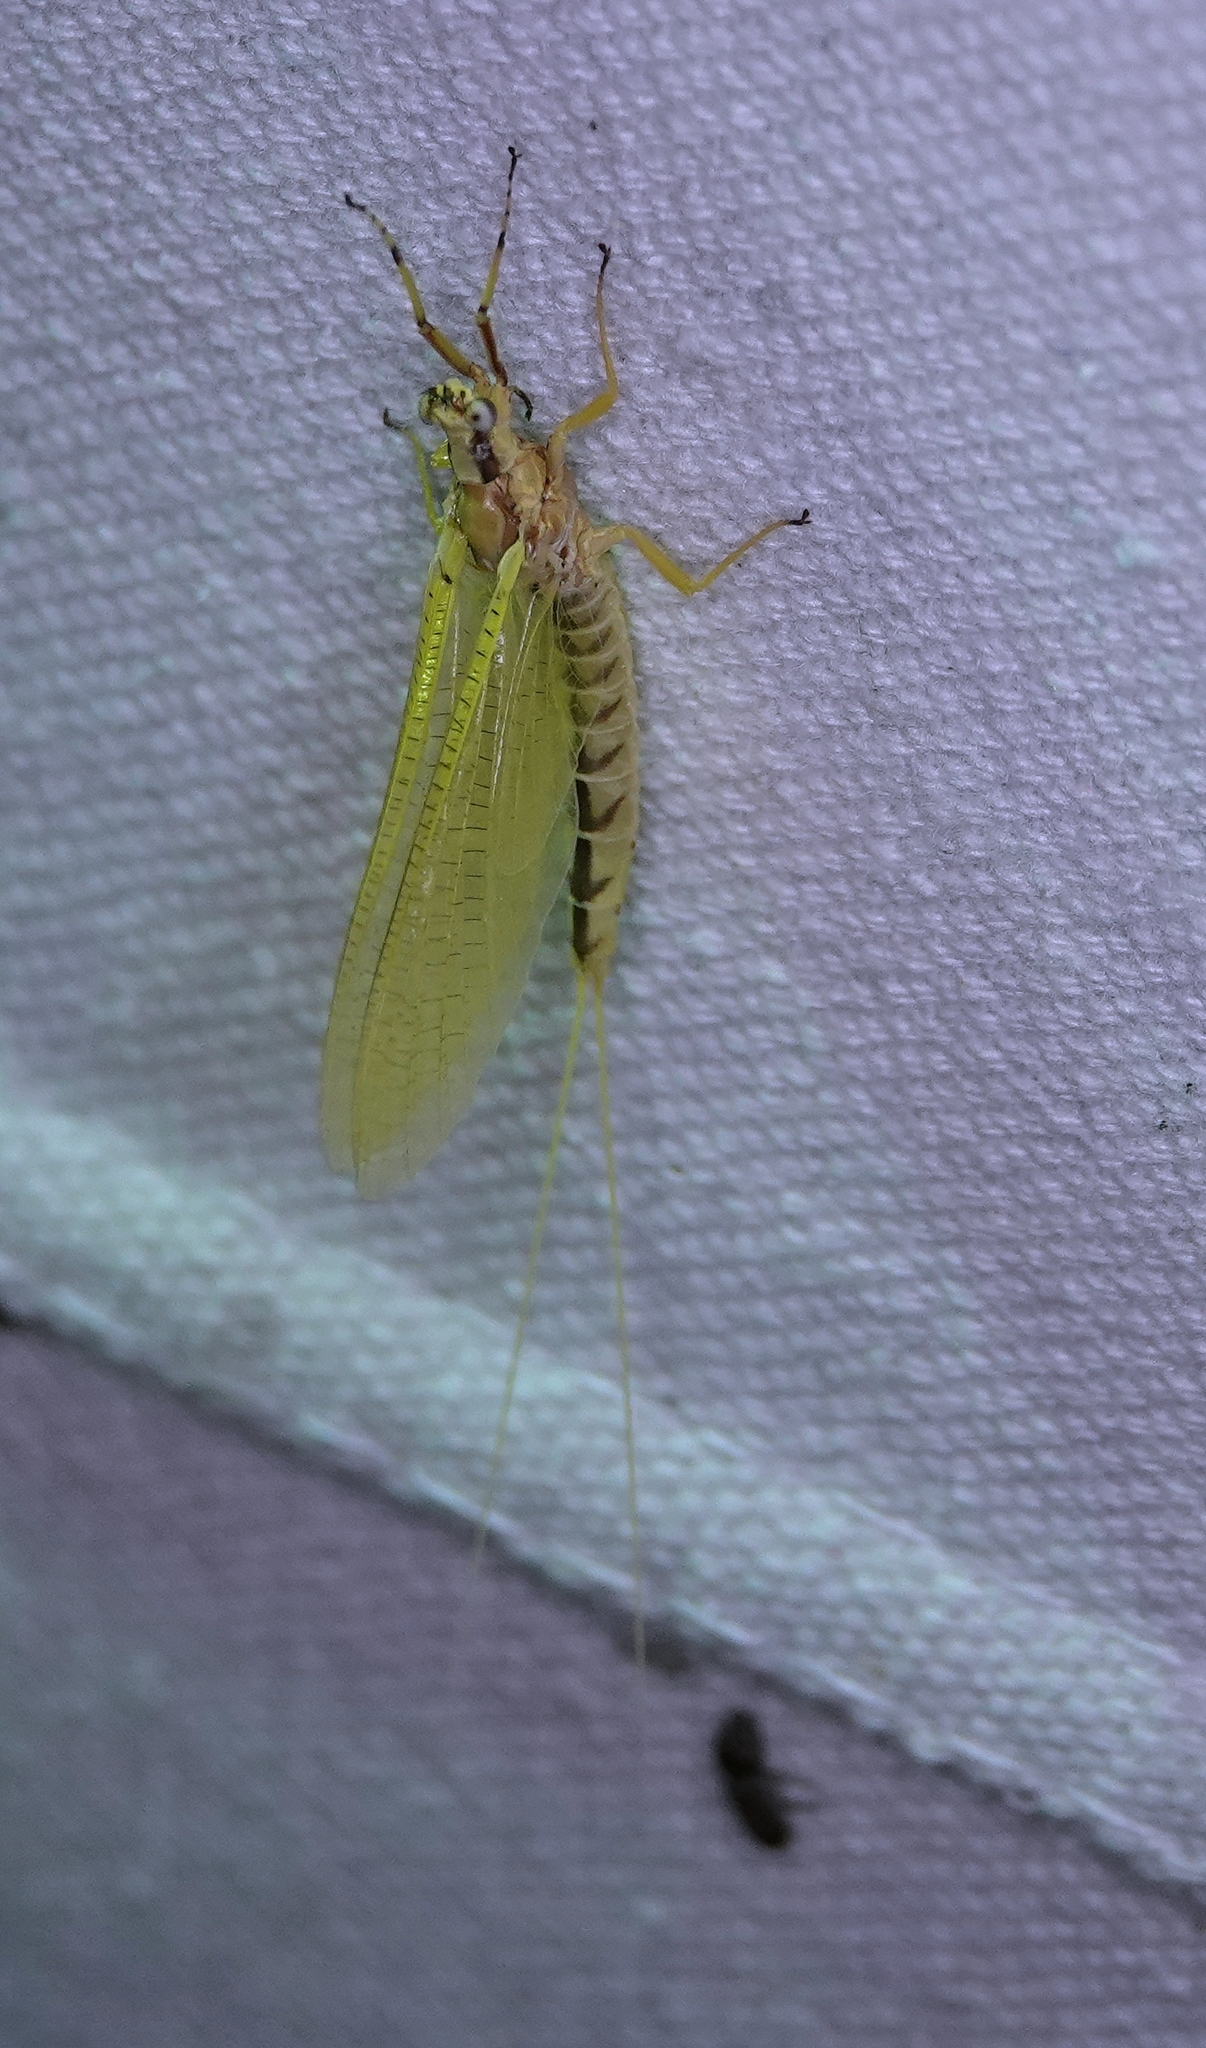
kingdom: Animalia
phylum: Arthropoda
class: Insecta
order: Ephemeroptera
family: Ephemeridae
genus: Hexagenia
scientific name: Hexagenia limbata
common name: Giant mayfly
